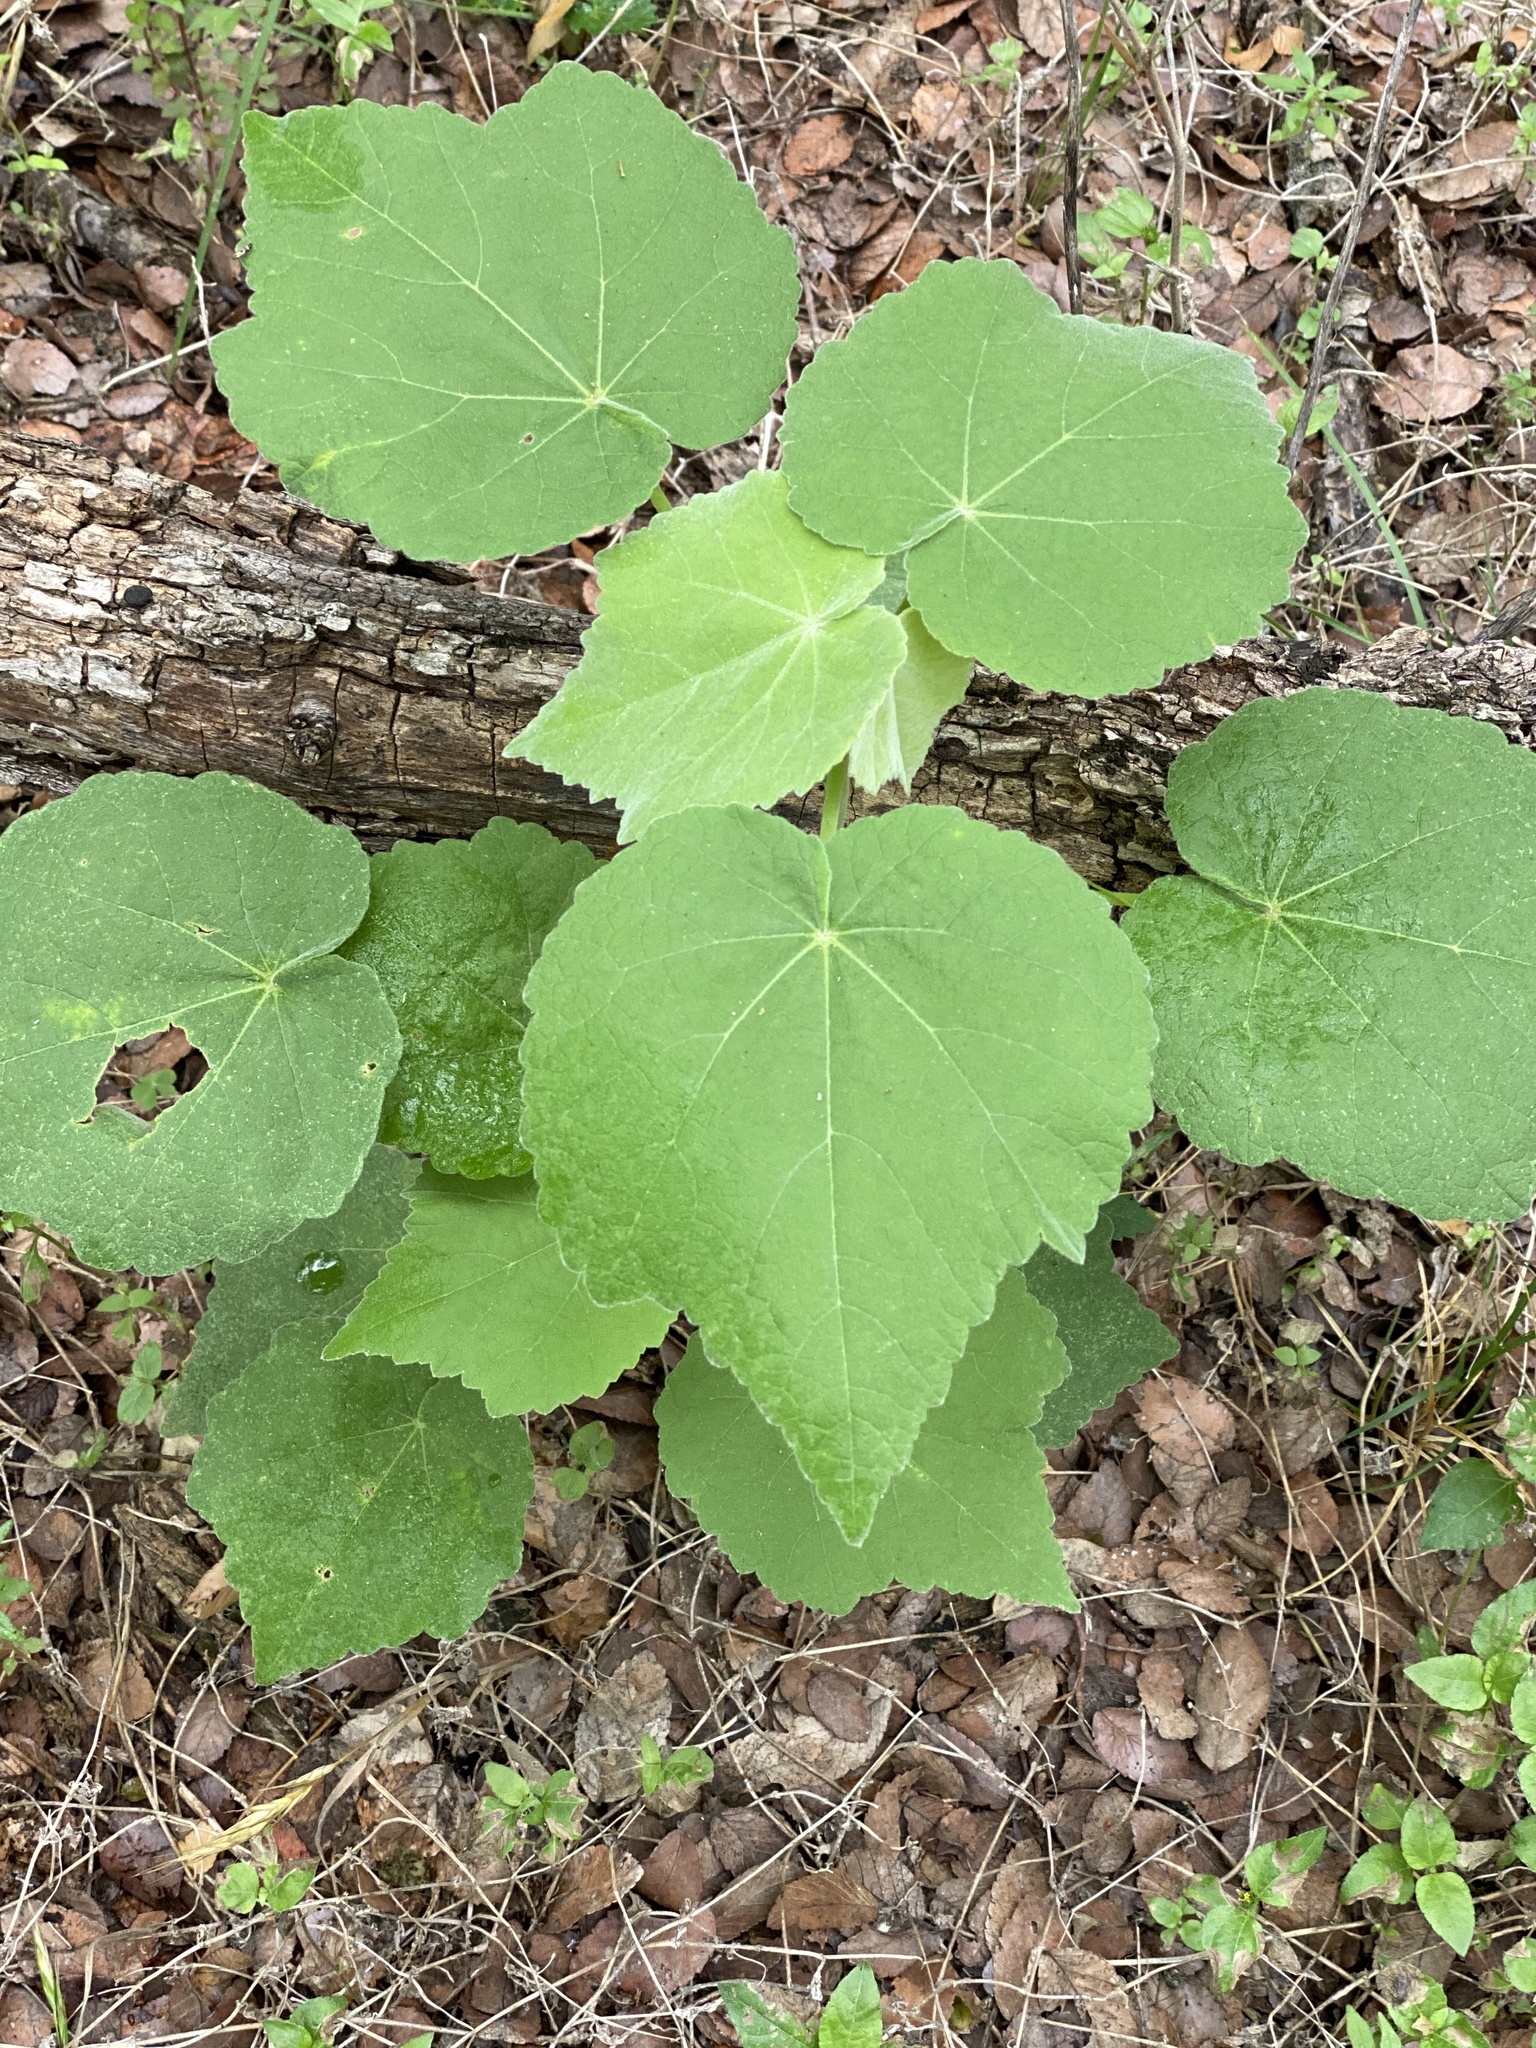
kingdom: Plantae
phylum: Tracheophyta
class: Magnoliopsida
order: Malvales
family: Malvaceae
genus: Allowissadula
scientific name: Allowissadula holosericea
